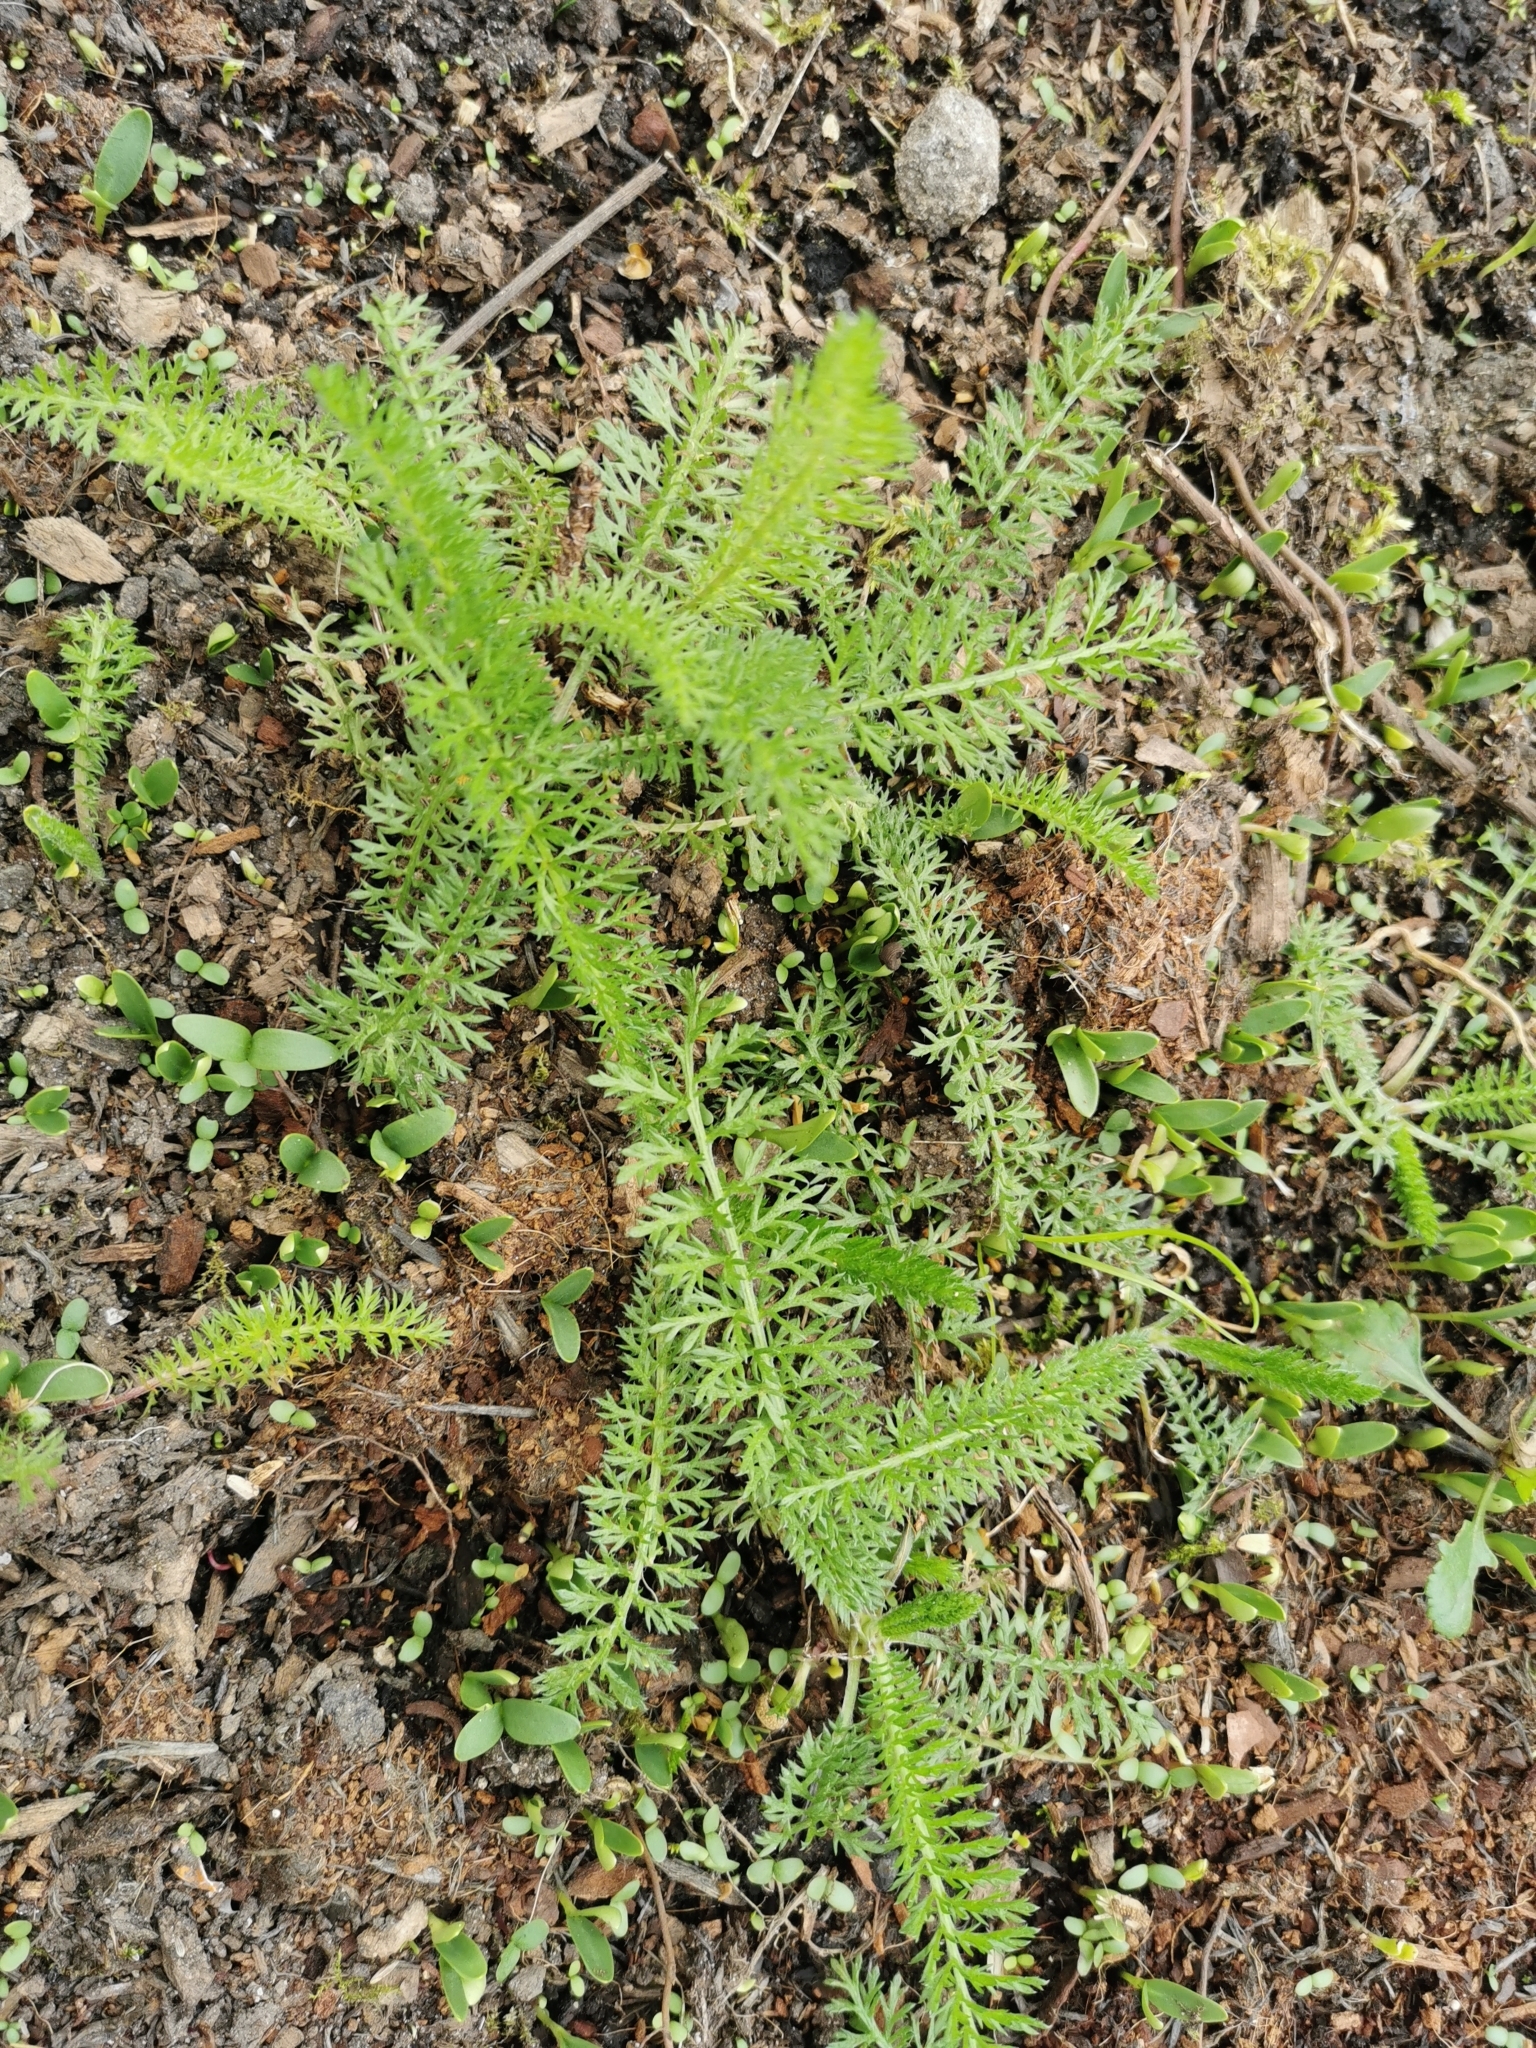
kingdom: Plantae
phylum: Tracheophyta
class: Magnoliopsida
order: Asterales
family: Asteraceae
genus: Achillea
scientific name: Achillea millefolium
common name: Yarrow
